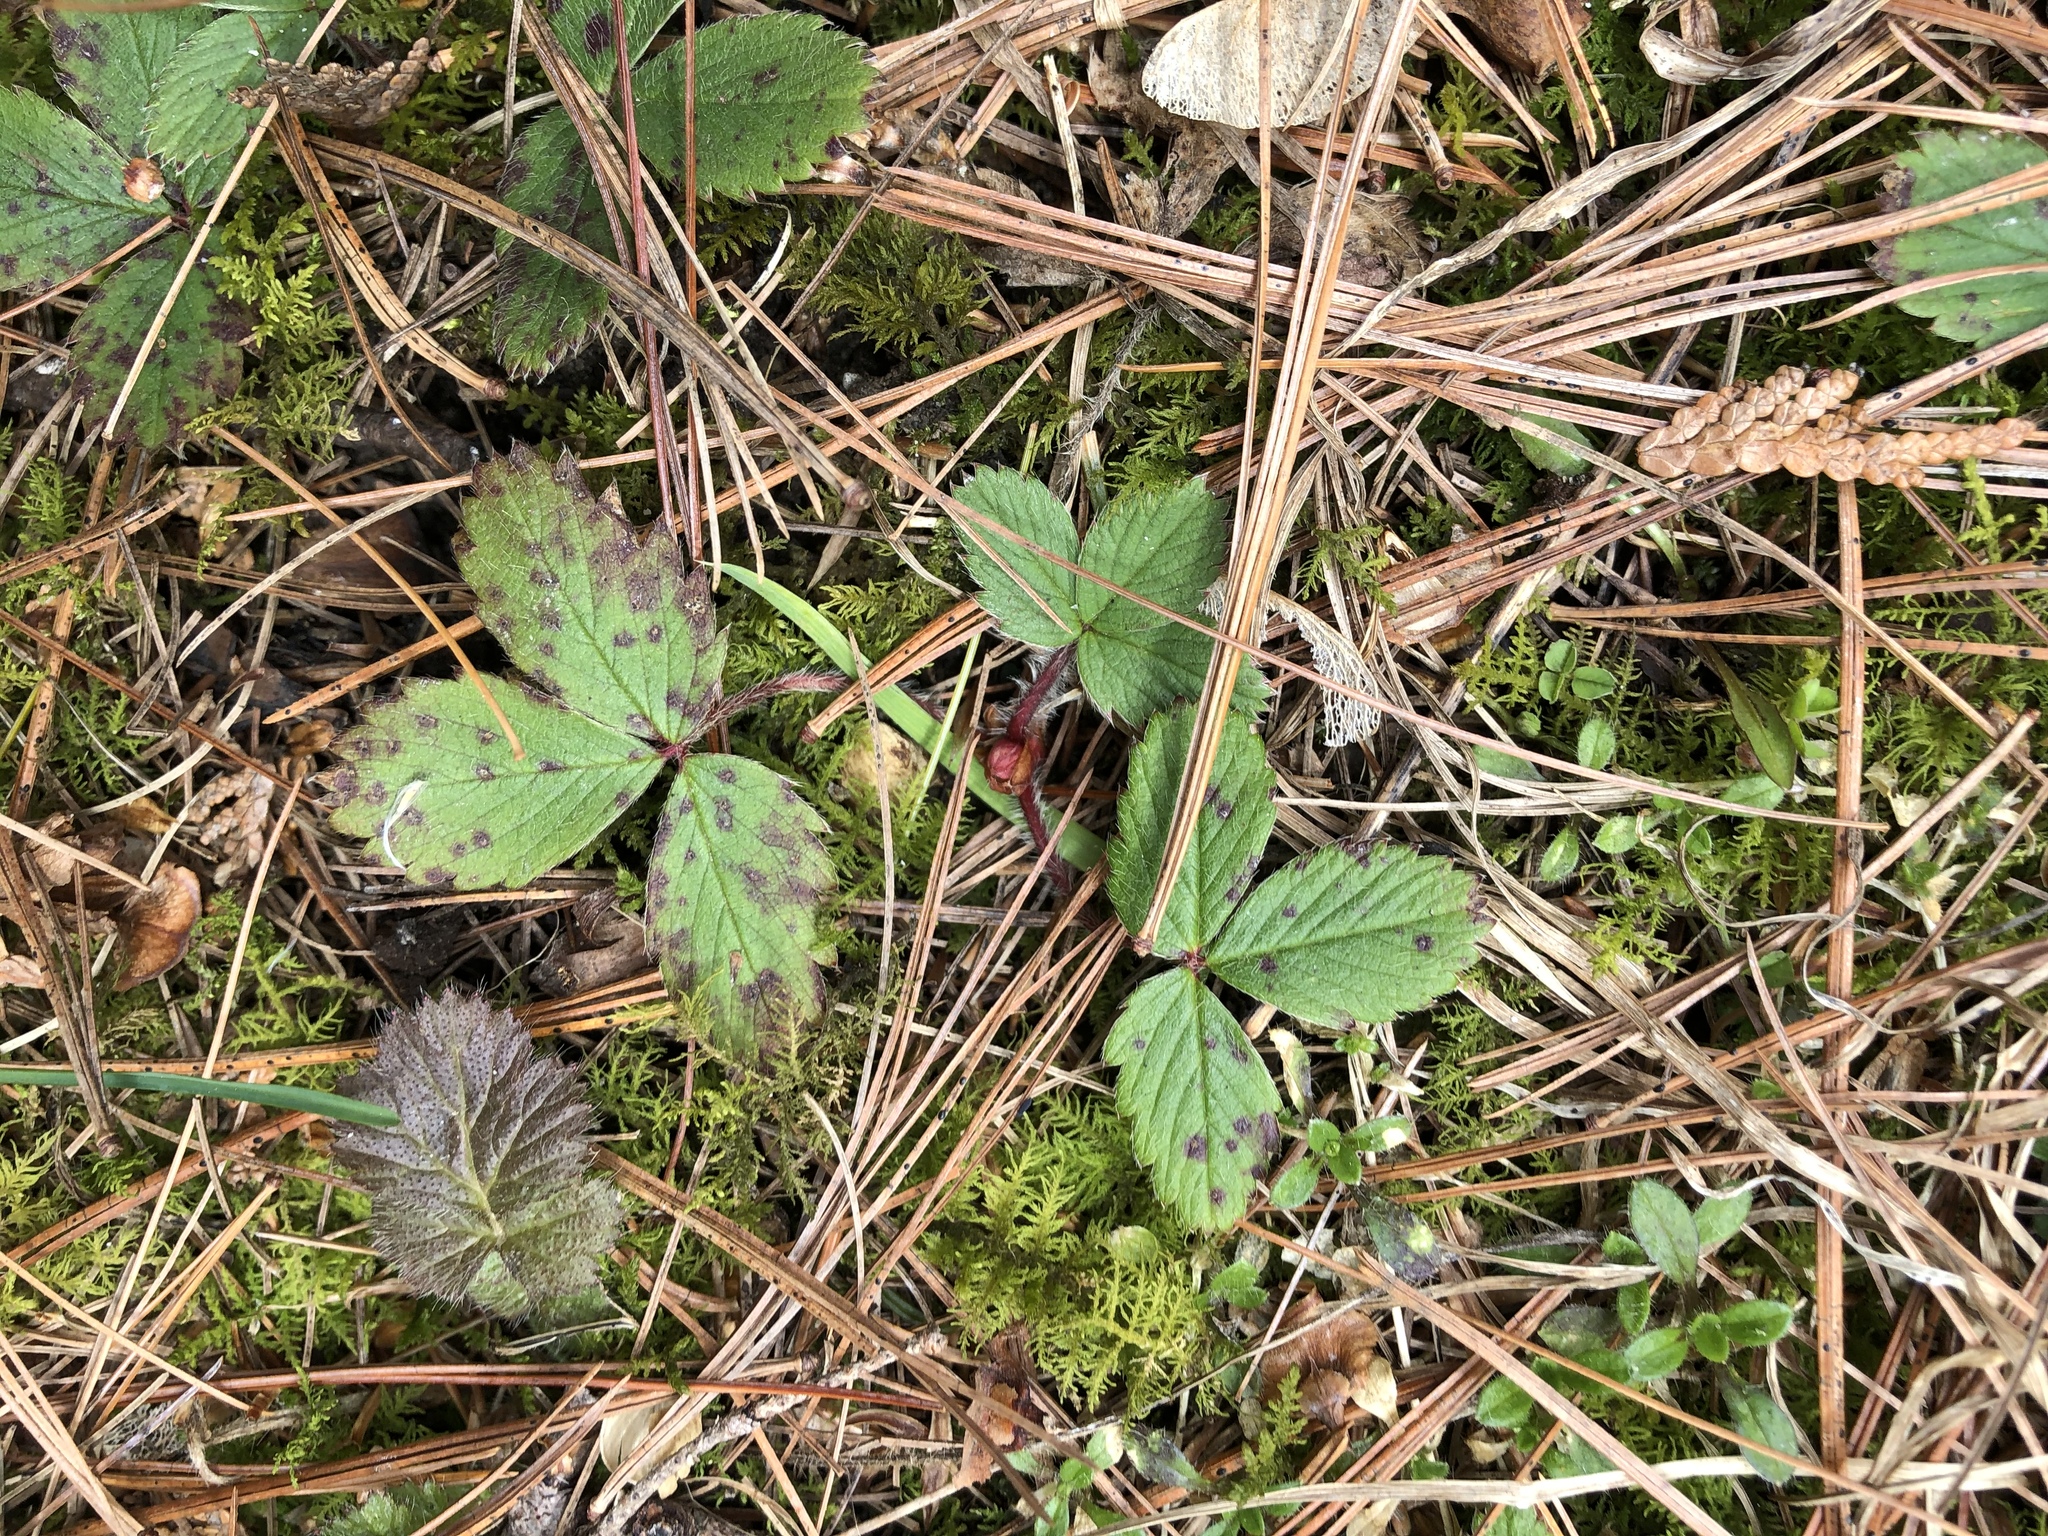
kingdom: Plantae
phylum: Tracheophyta
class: Magnoliopsida
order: Rosales
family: Rosaceae
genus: Fragaria
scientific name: Fragaria virginiana
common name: Thickleaved wild strawberry
